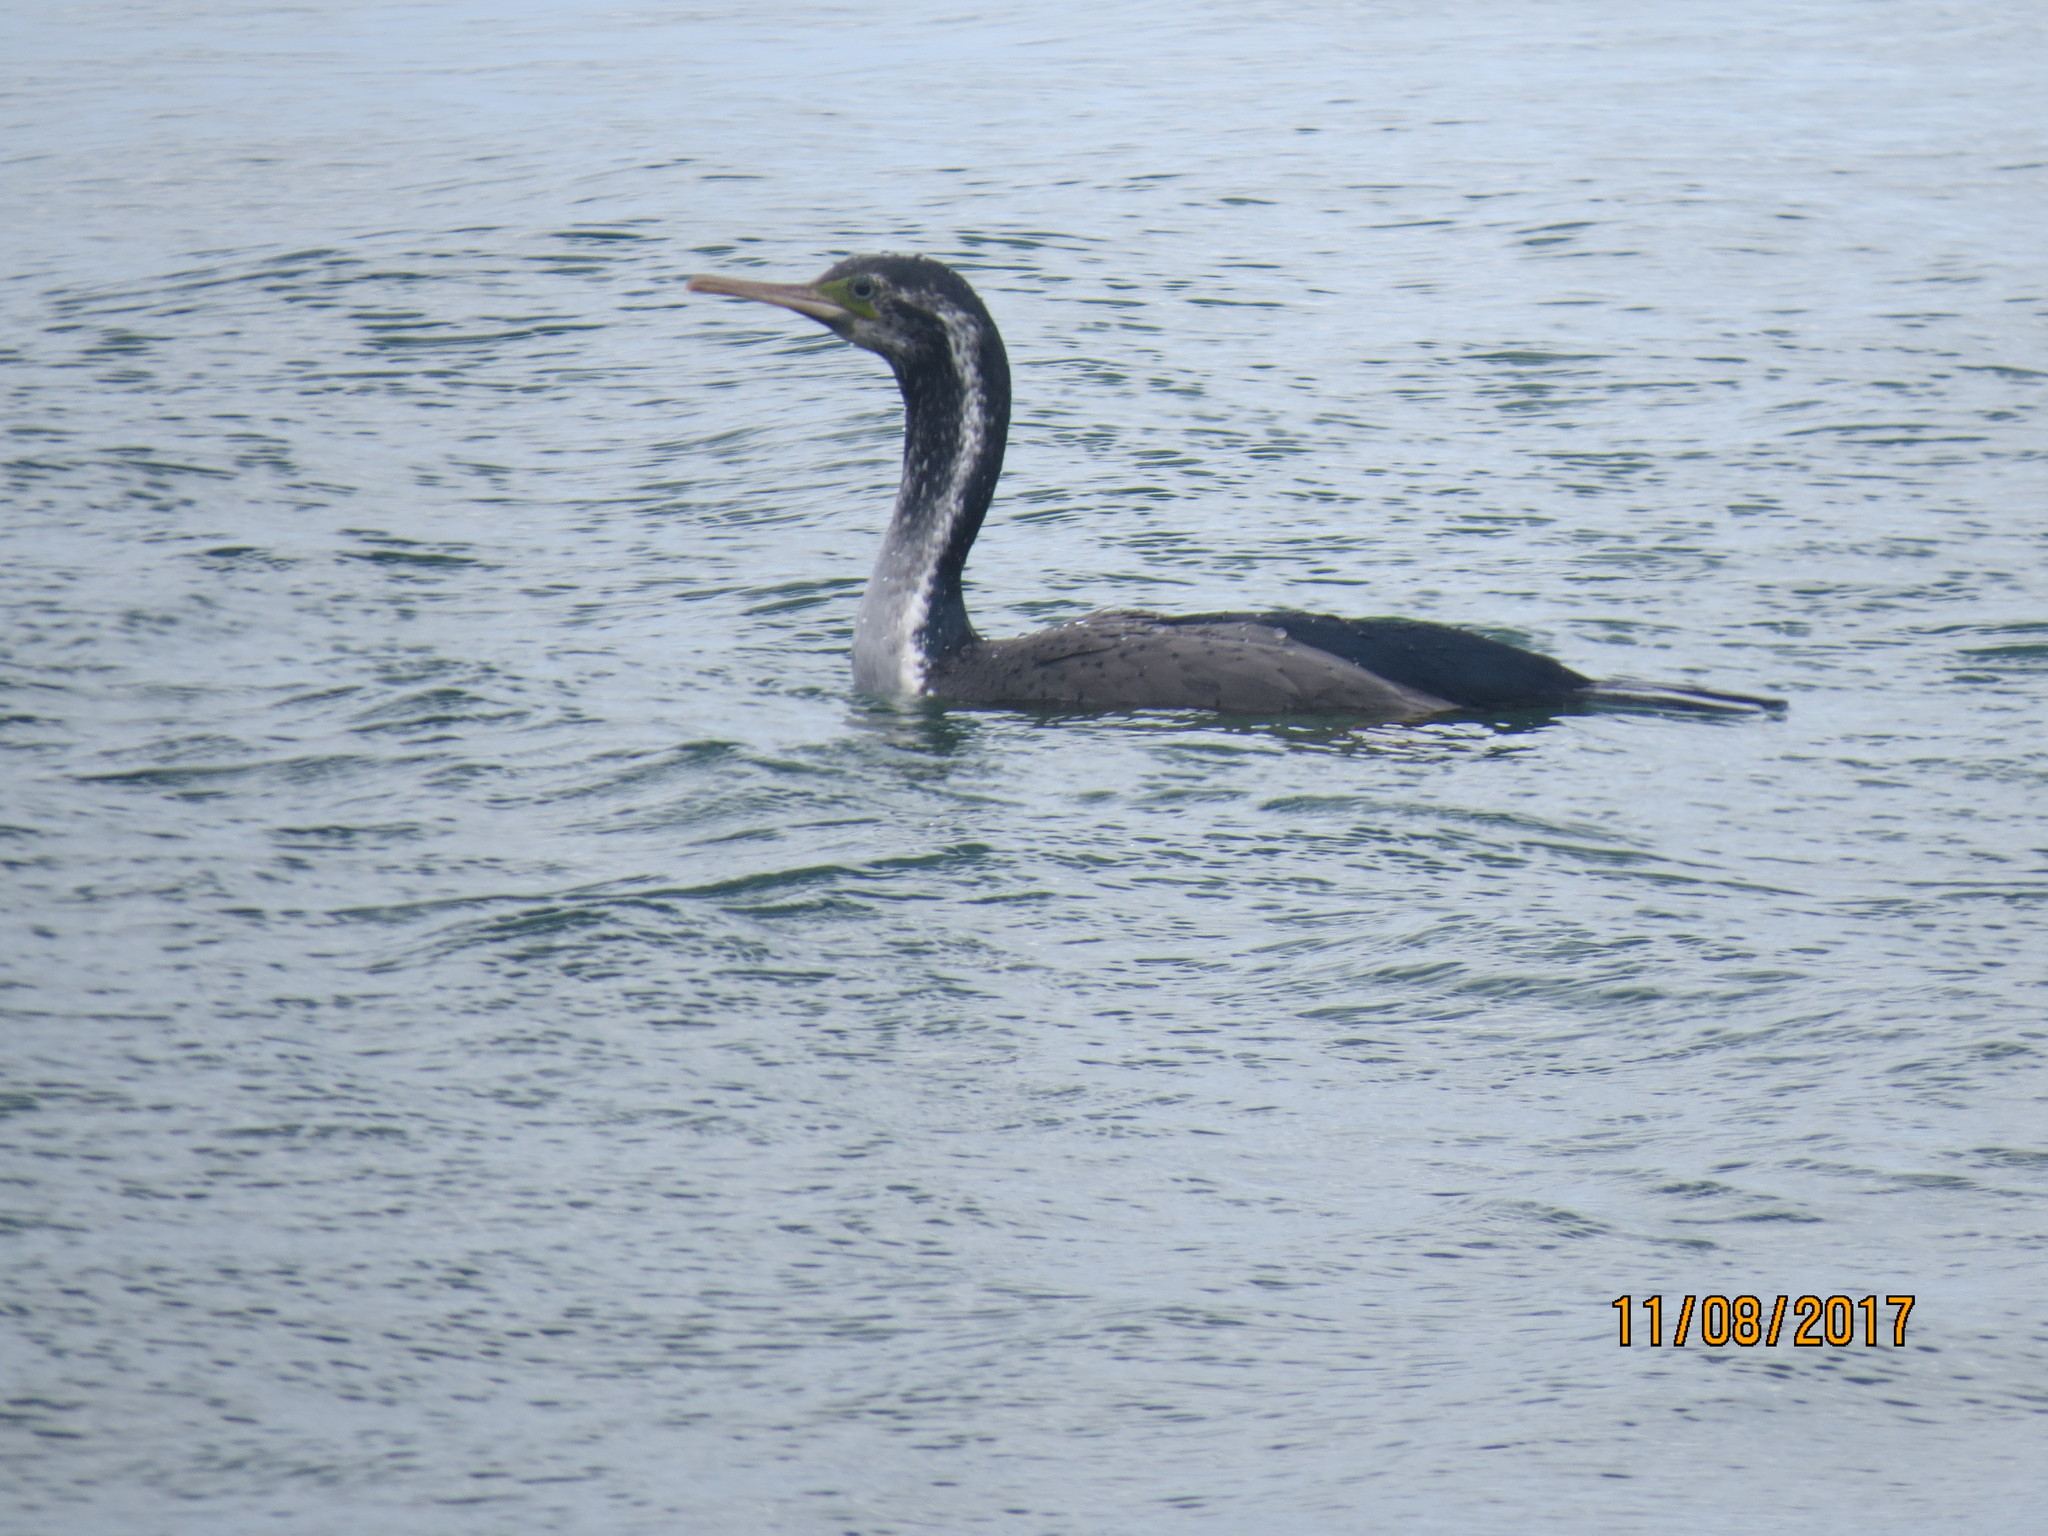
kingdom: Animalia
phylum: Chordata
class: Aves
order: Suliformes
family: Phalacrocoracidae
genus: Phalacrocorax
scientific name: Phalacrocorax punctatus
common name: Spotted shag
